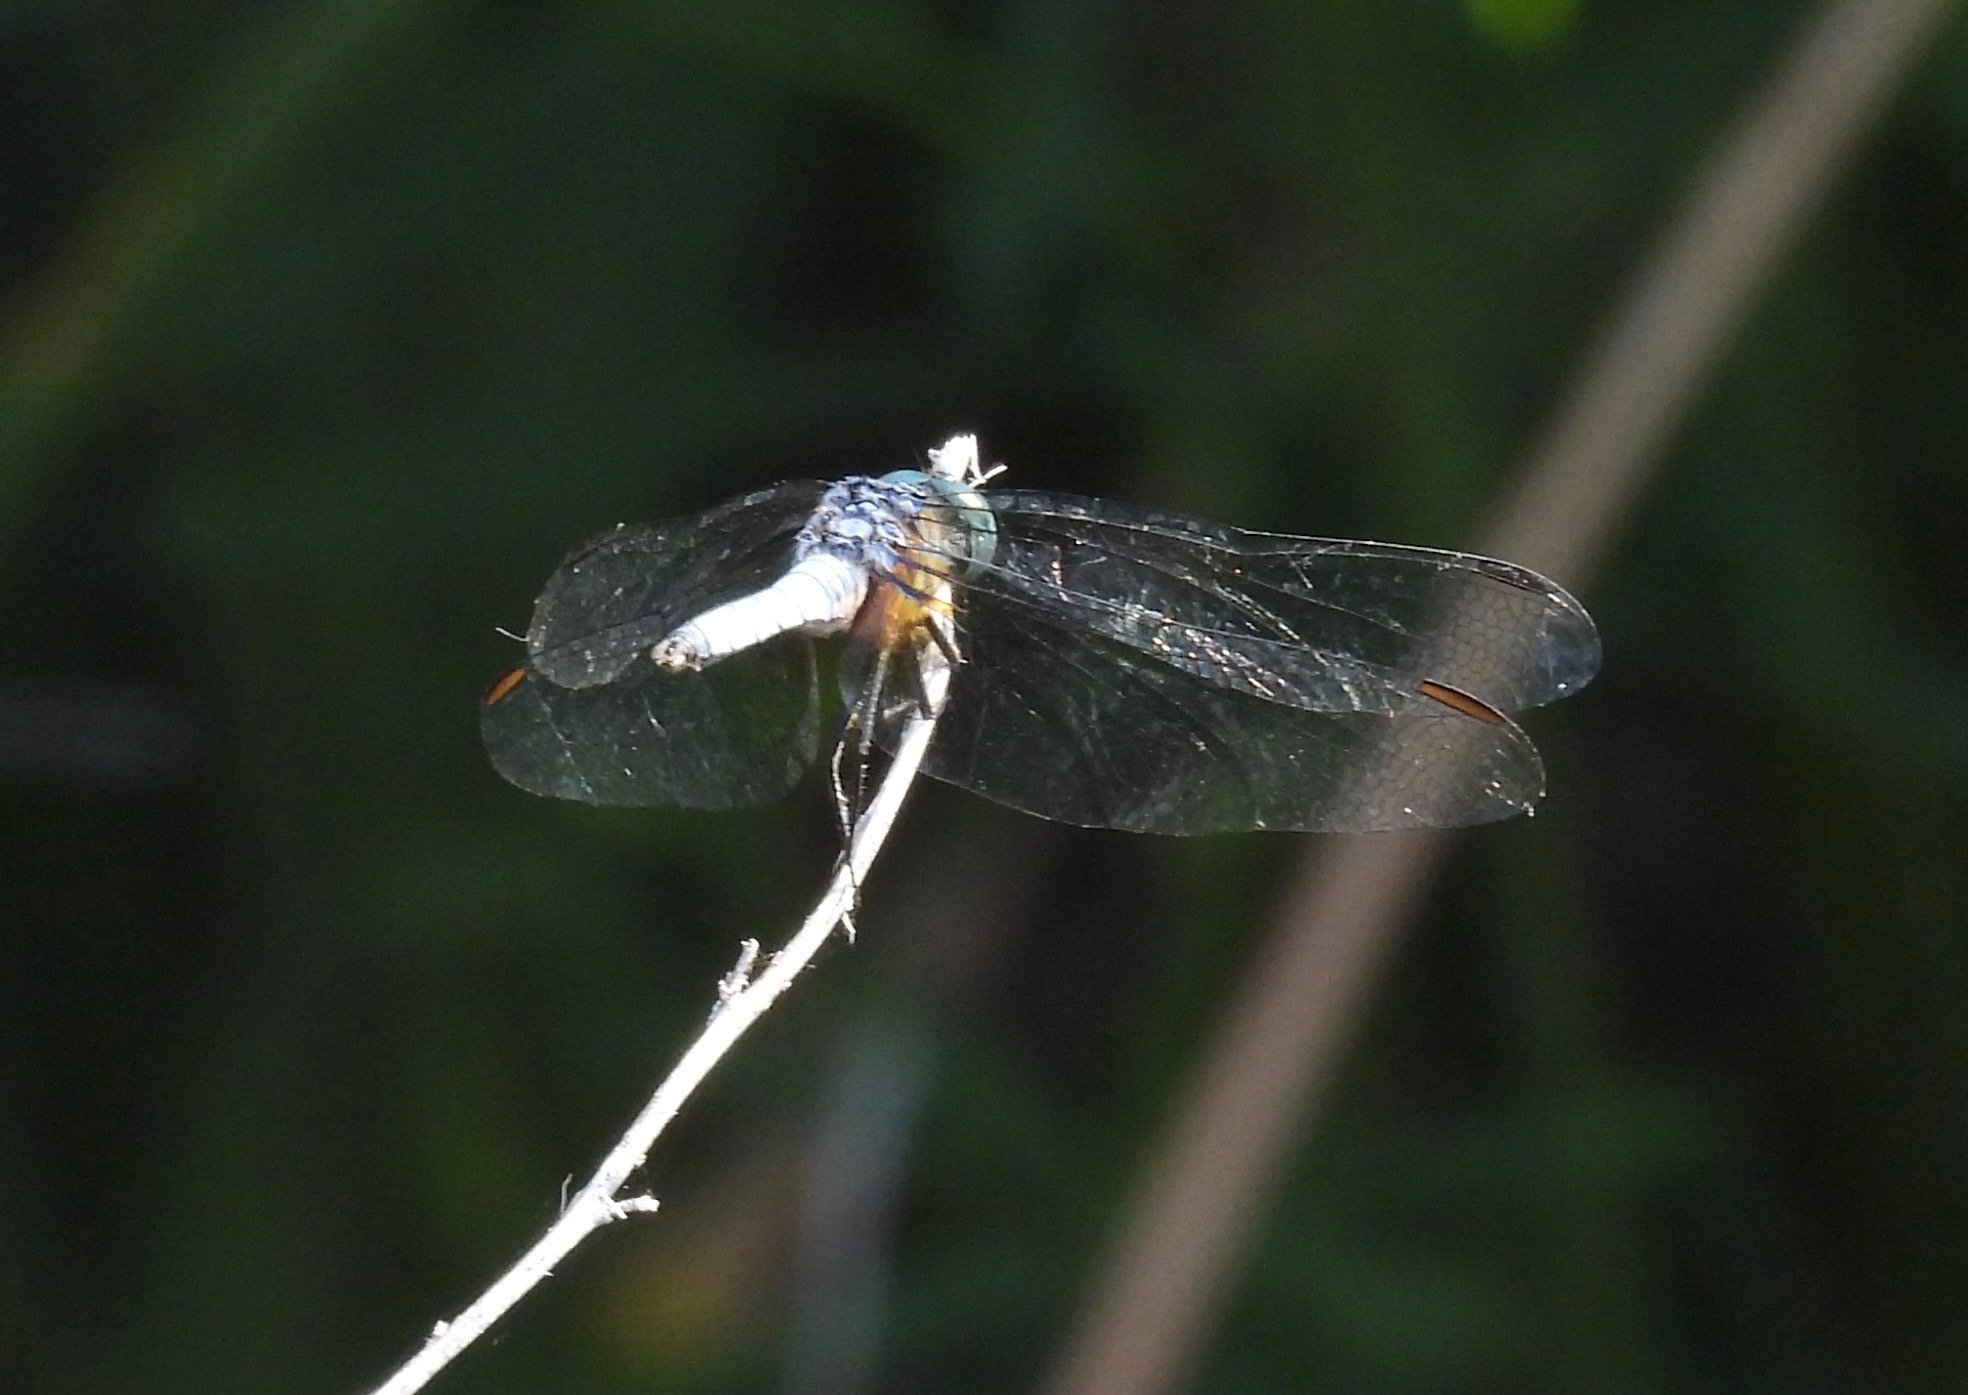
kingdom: Animalia
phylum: Arthropoda
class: Insecta
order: Odonata
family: Libellulidae
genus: Pachydiplax
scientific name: Pachydiplax longipennis
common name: Blue dasher
